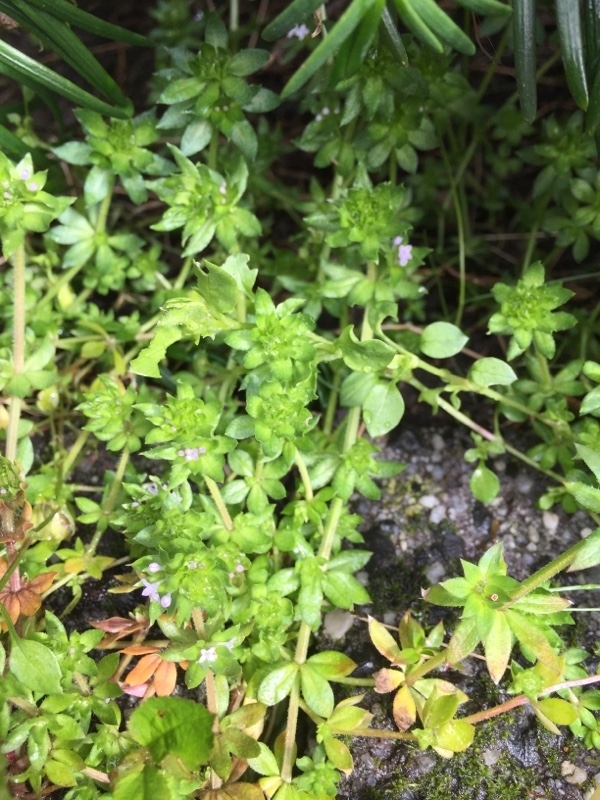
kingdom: Plantae
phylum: Tracheophyta
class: Magnoliopsida
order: Gentianales
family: Rubiaceae
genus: Sherardia
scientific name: Sherardia arvensis
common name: Field madder
